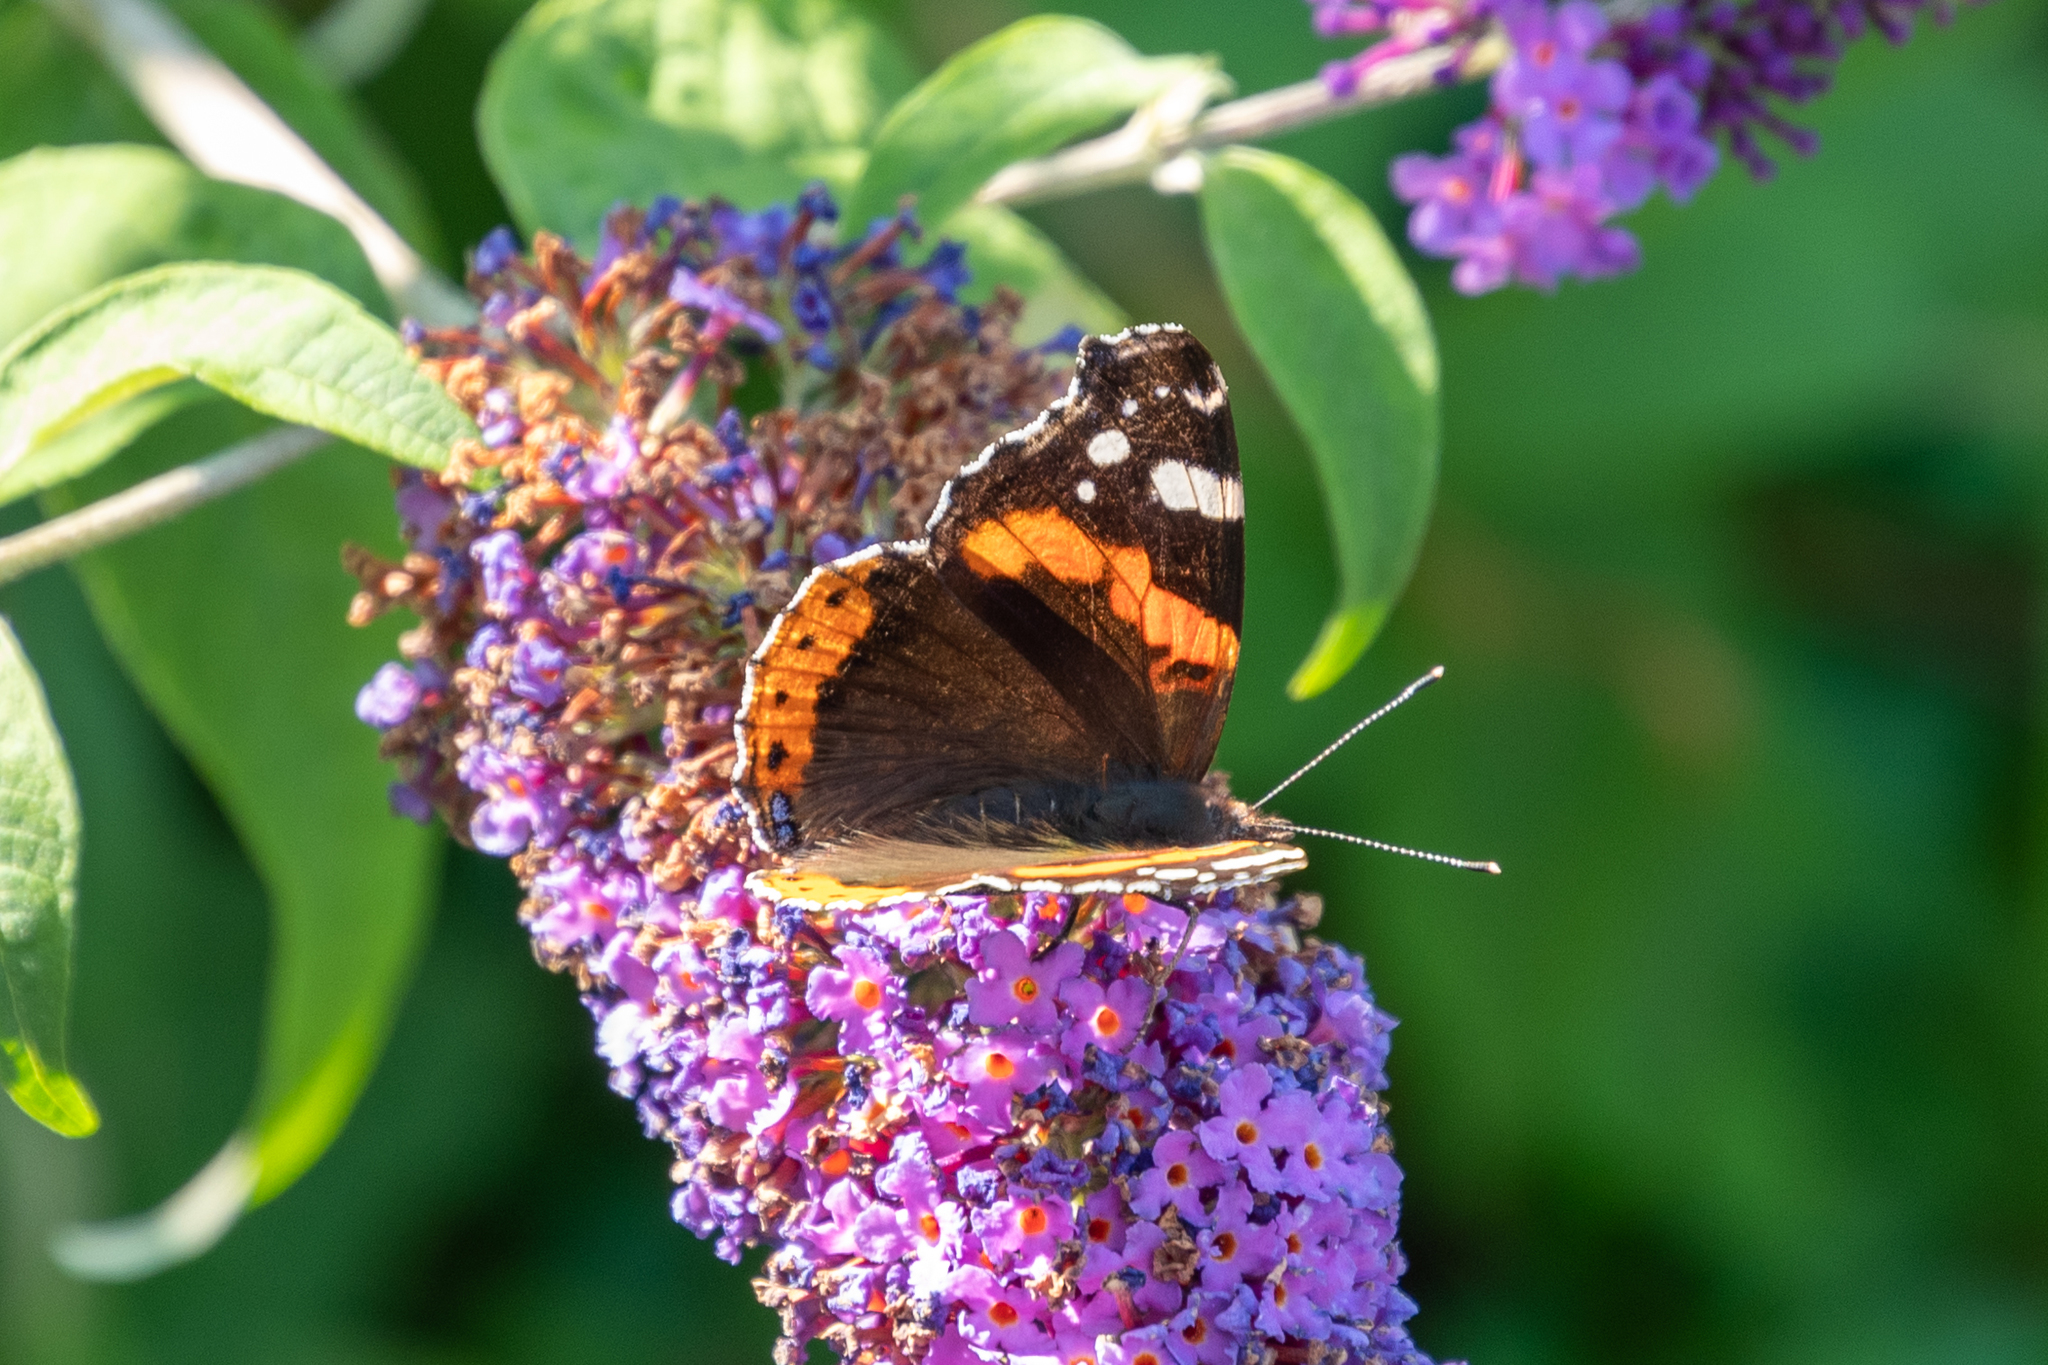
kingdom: Animalia
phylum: Arthropoda
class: Insecta
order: Lepidoptera
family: Nymphalidae
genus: Vanessa
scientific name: Vanessa atalanta
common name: Red admiral
